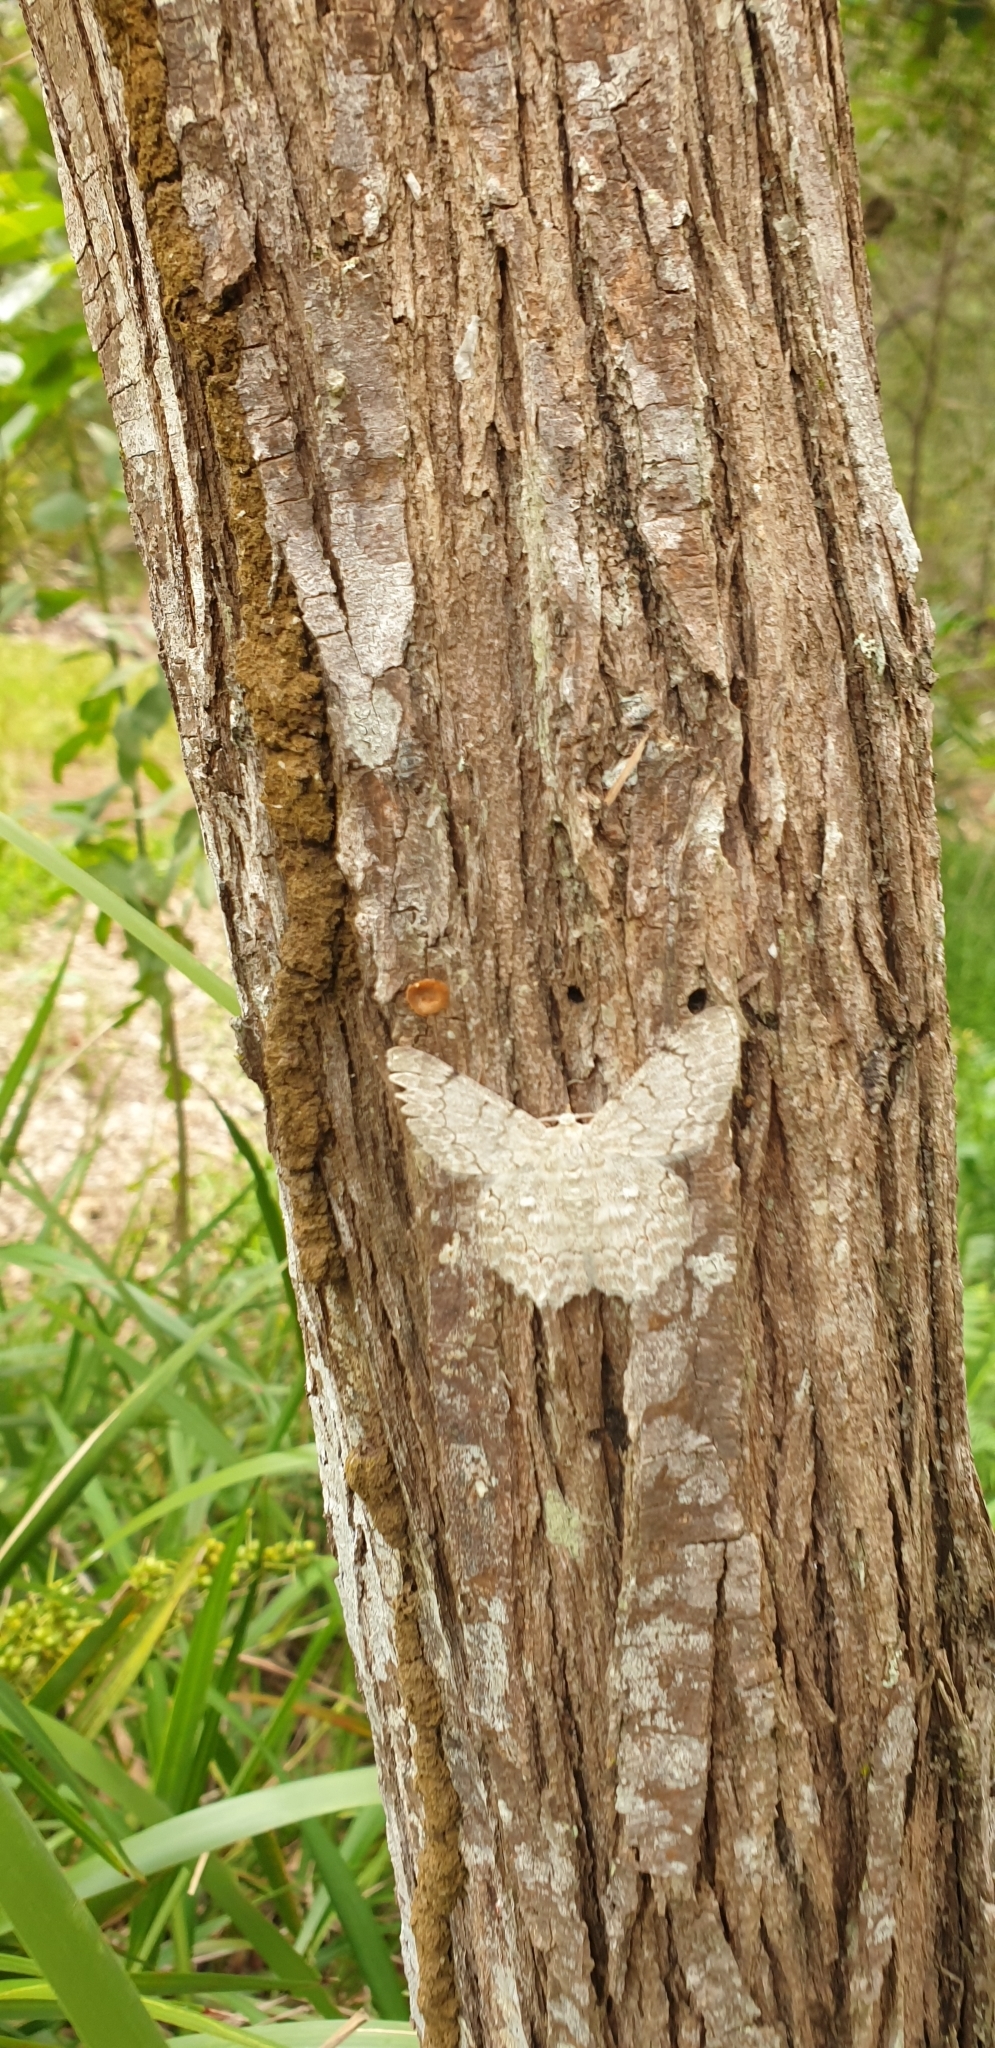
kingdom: Animalia
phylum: Arthropoda
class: Insecta
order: Lepidoptera
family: Geometridae
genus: Pingasa
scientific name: Pingasa chlora
